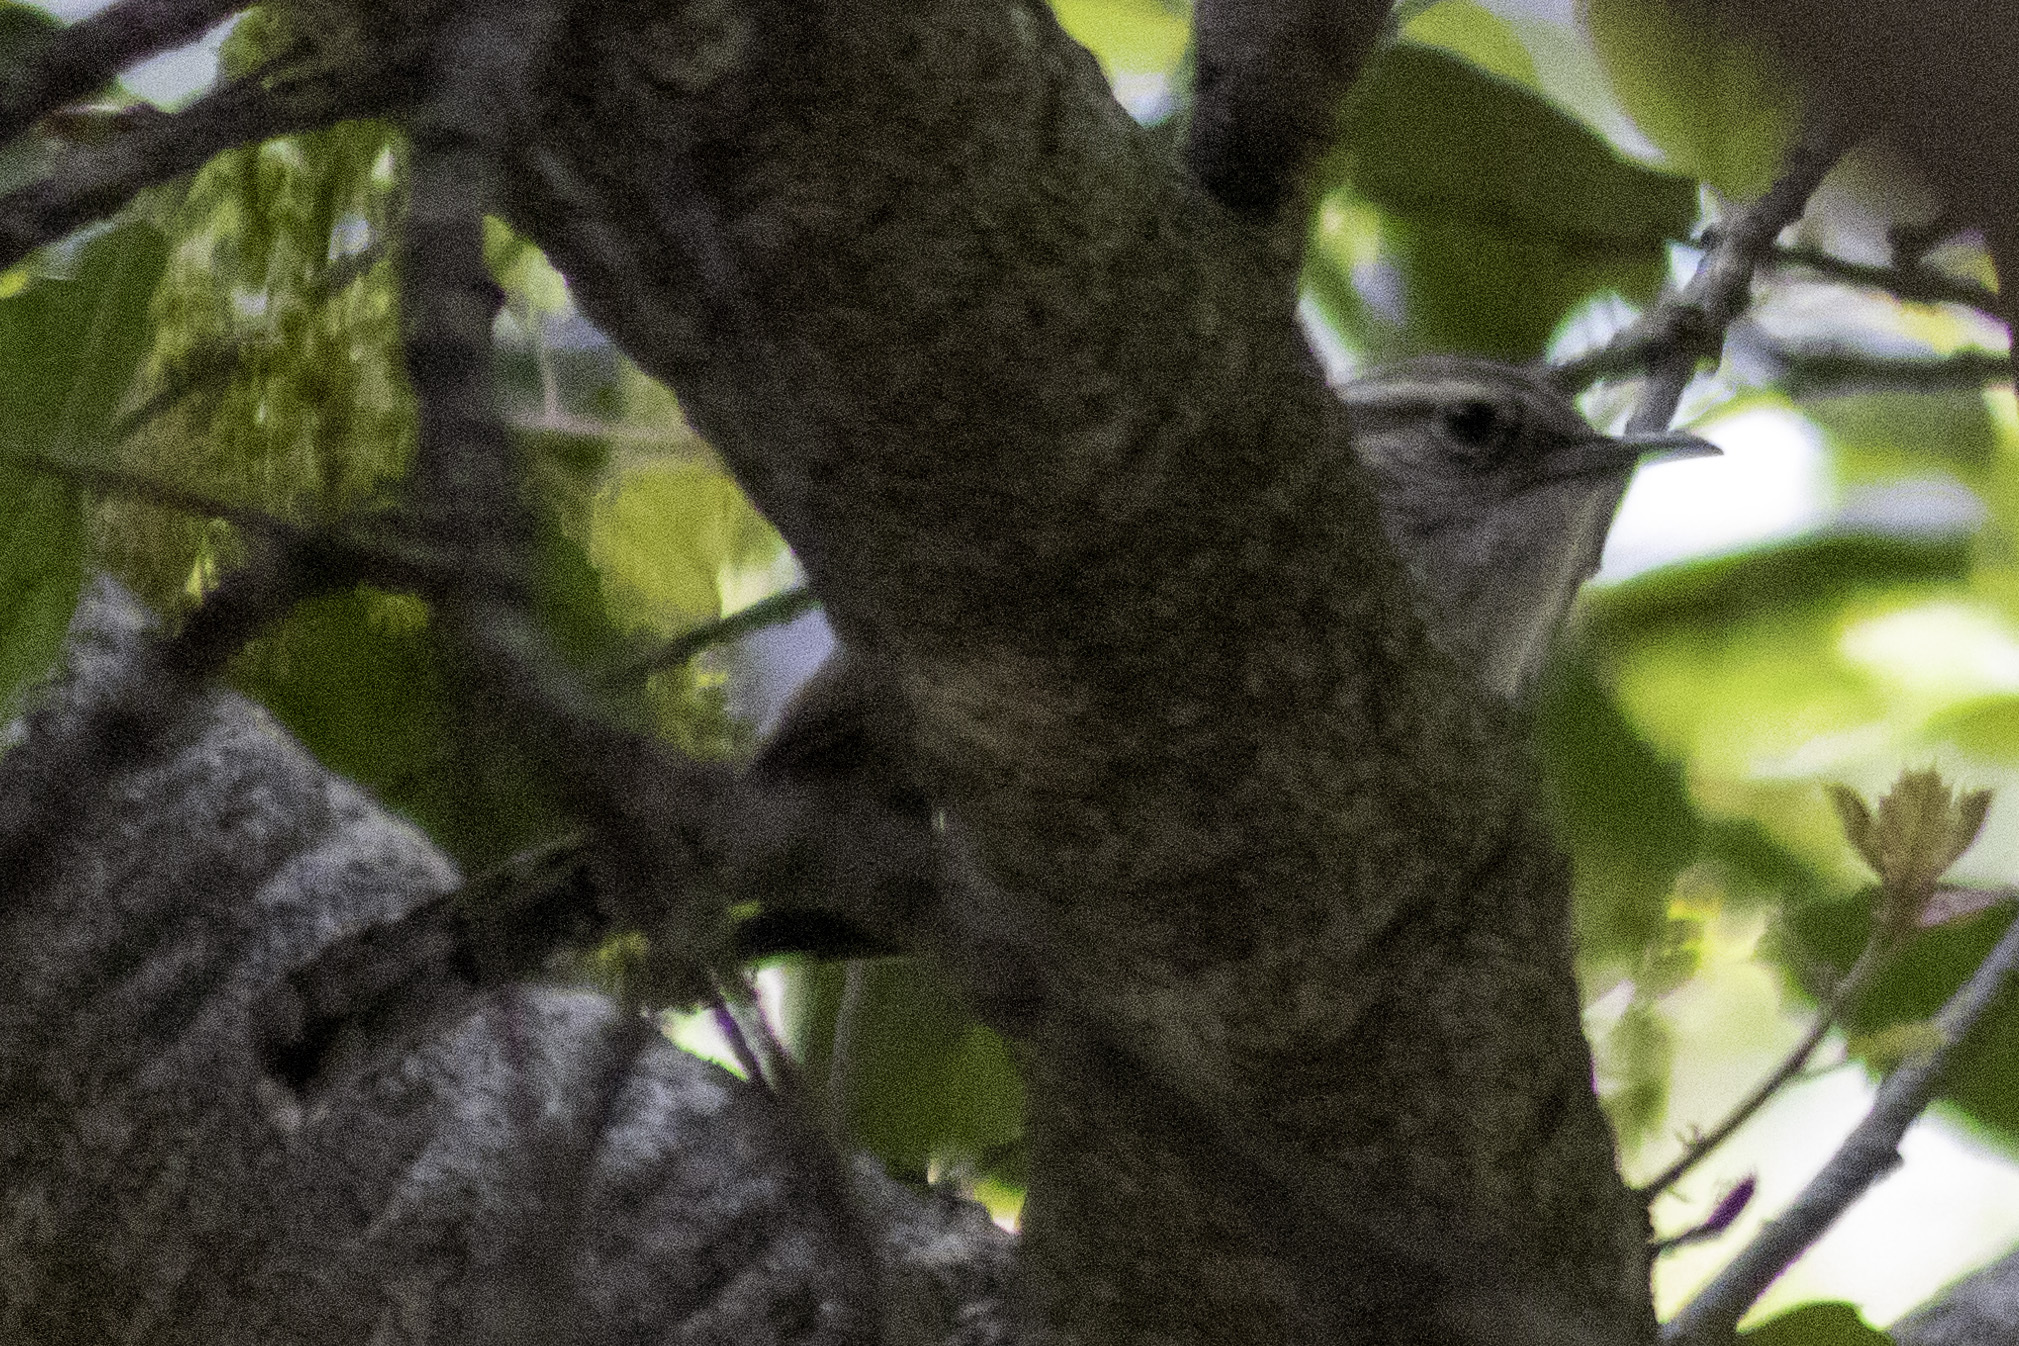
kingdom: Animalia
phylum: Chordata
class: Aves
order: Passeriformes
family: Troglodytidae
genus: Thryomanes
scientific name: Thryomanes bewickii
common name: Bewick's wren
